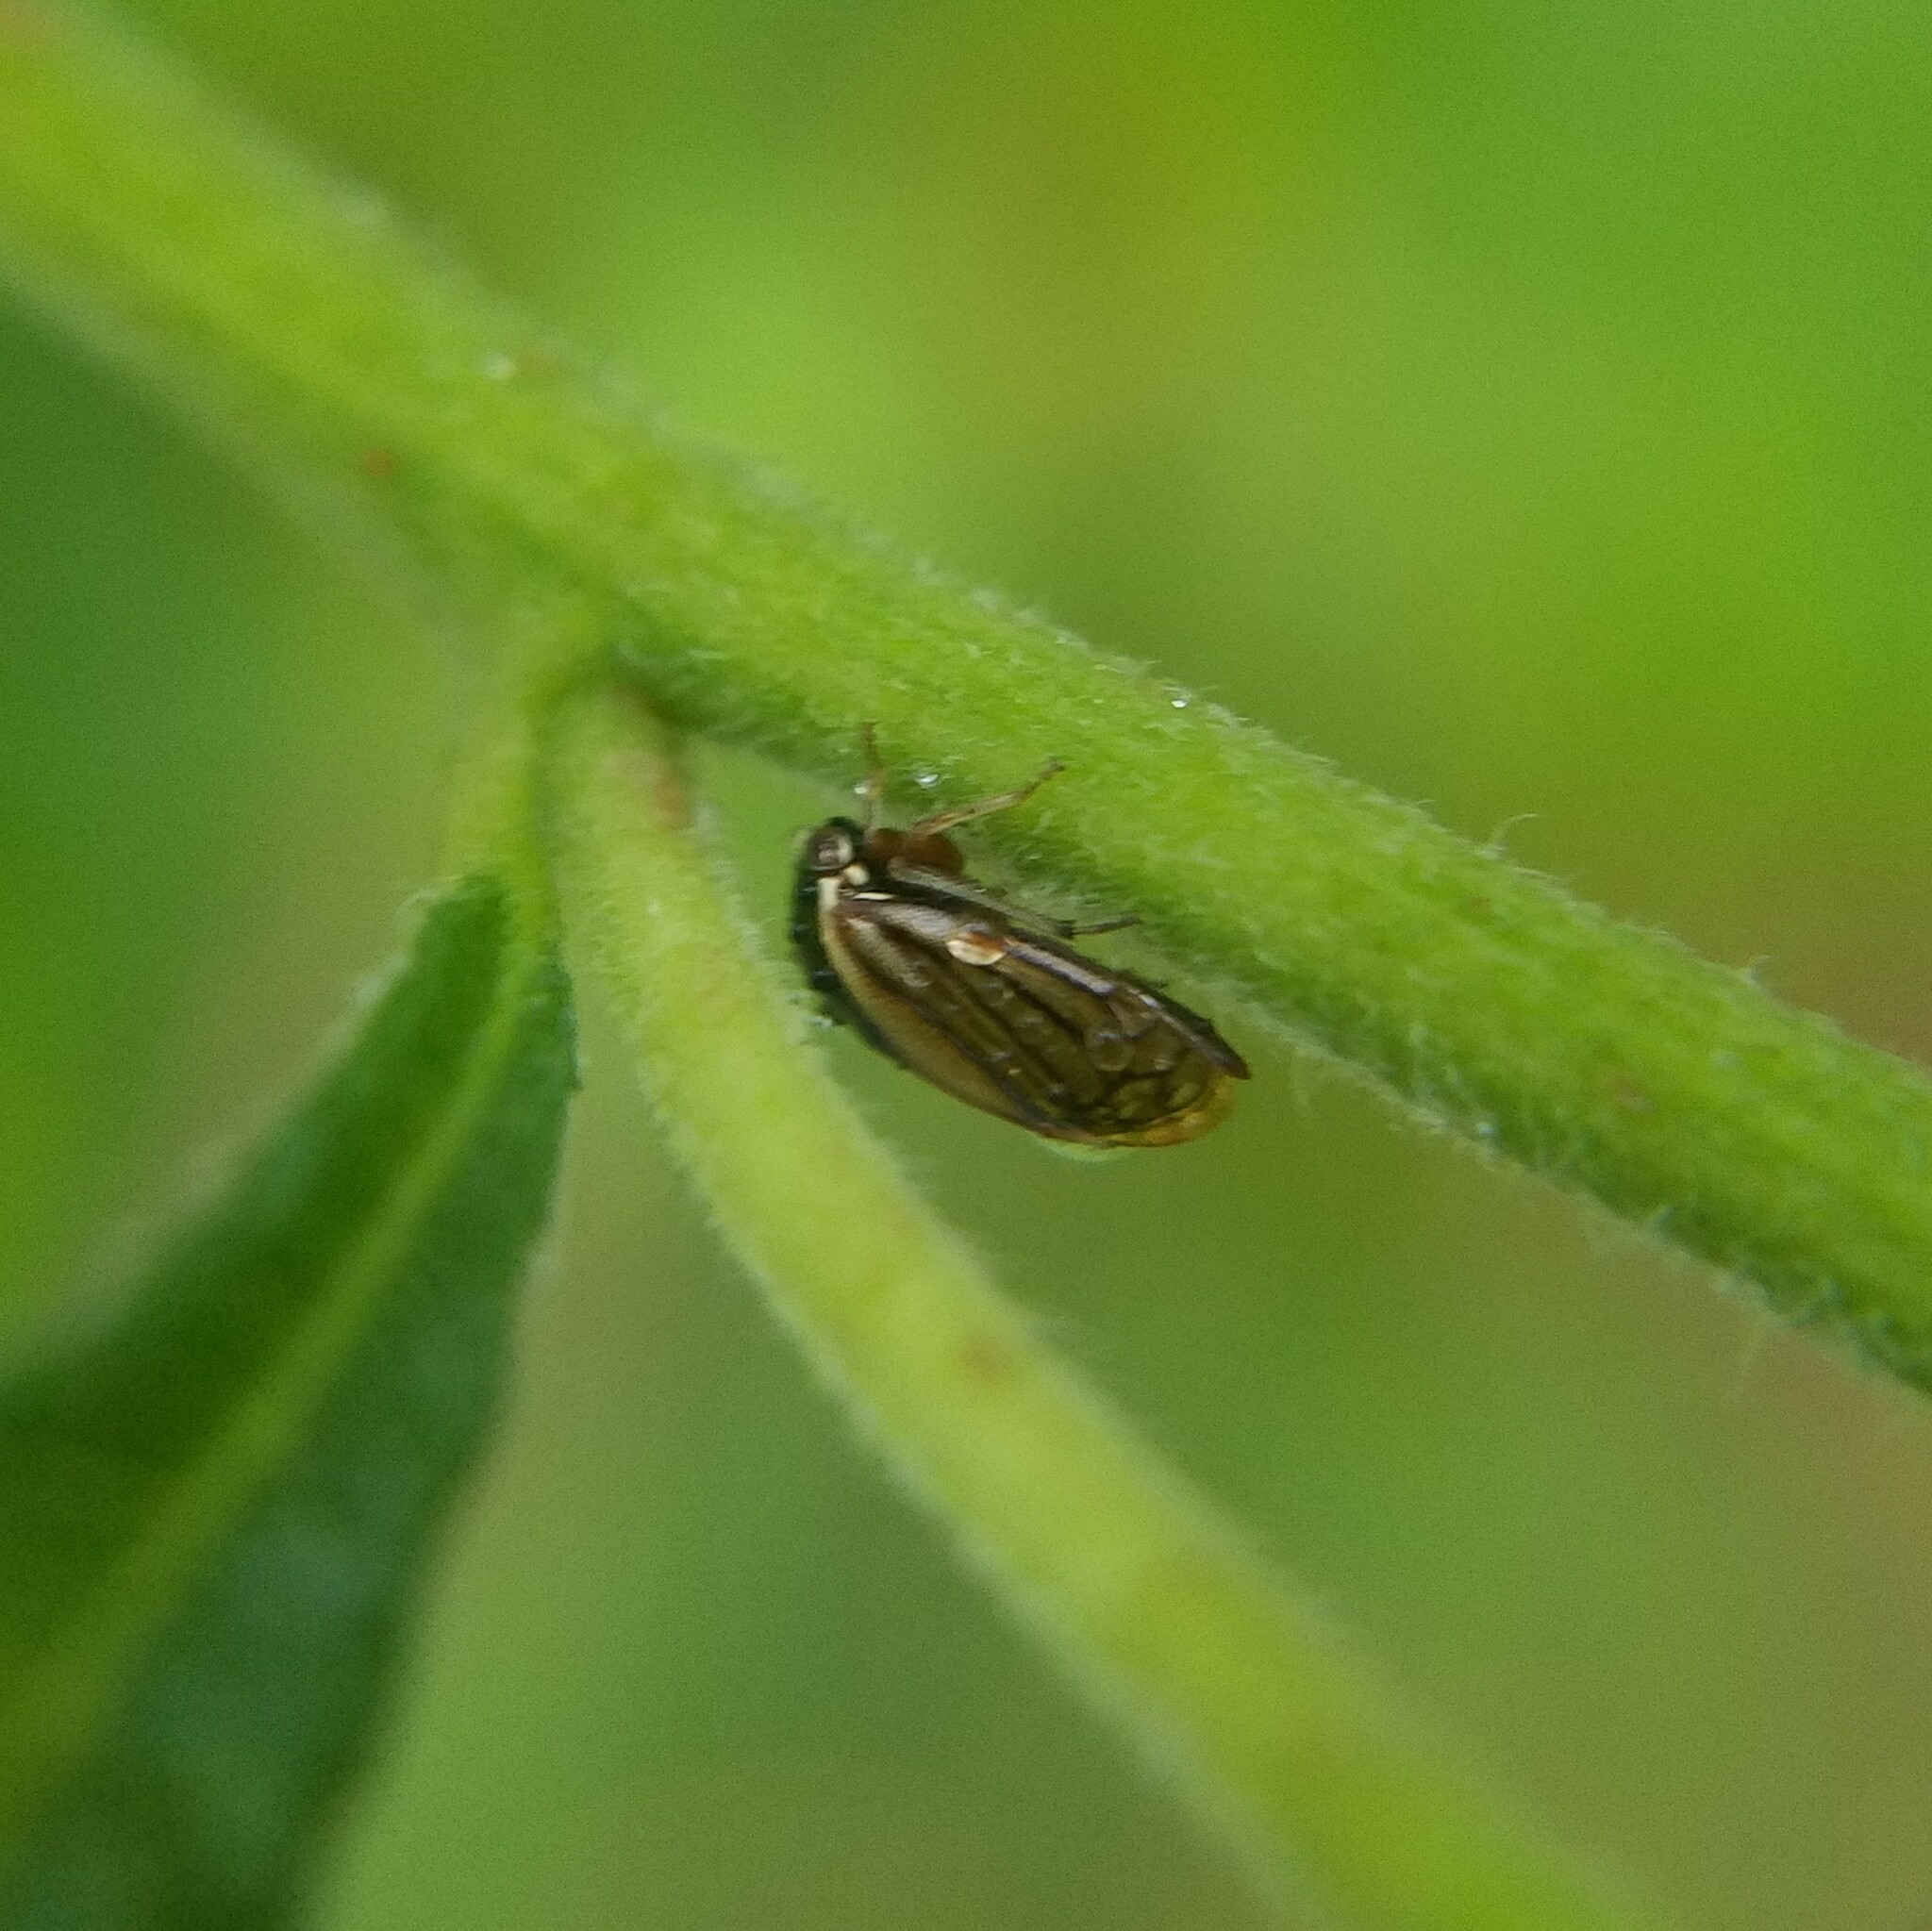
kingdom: Animalia
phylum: Arthropoda
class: Insecta
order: Hemiptera
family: Membracidae
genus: Acutalis
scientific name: Acutalis tartarea
